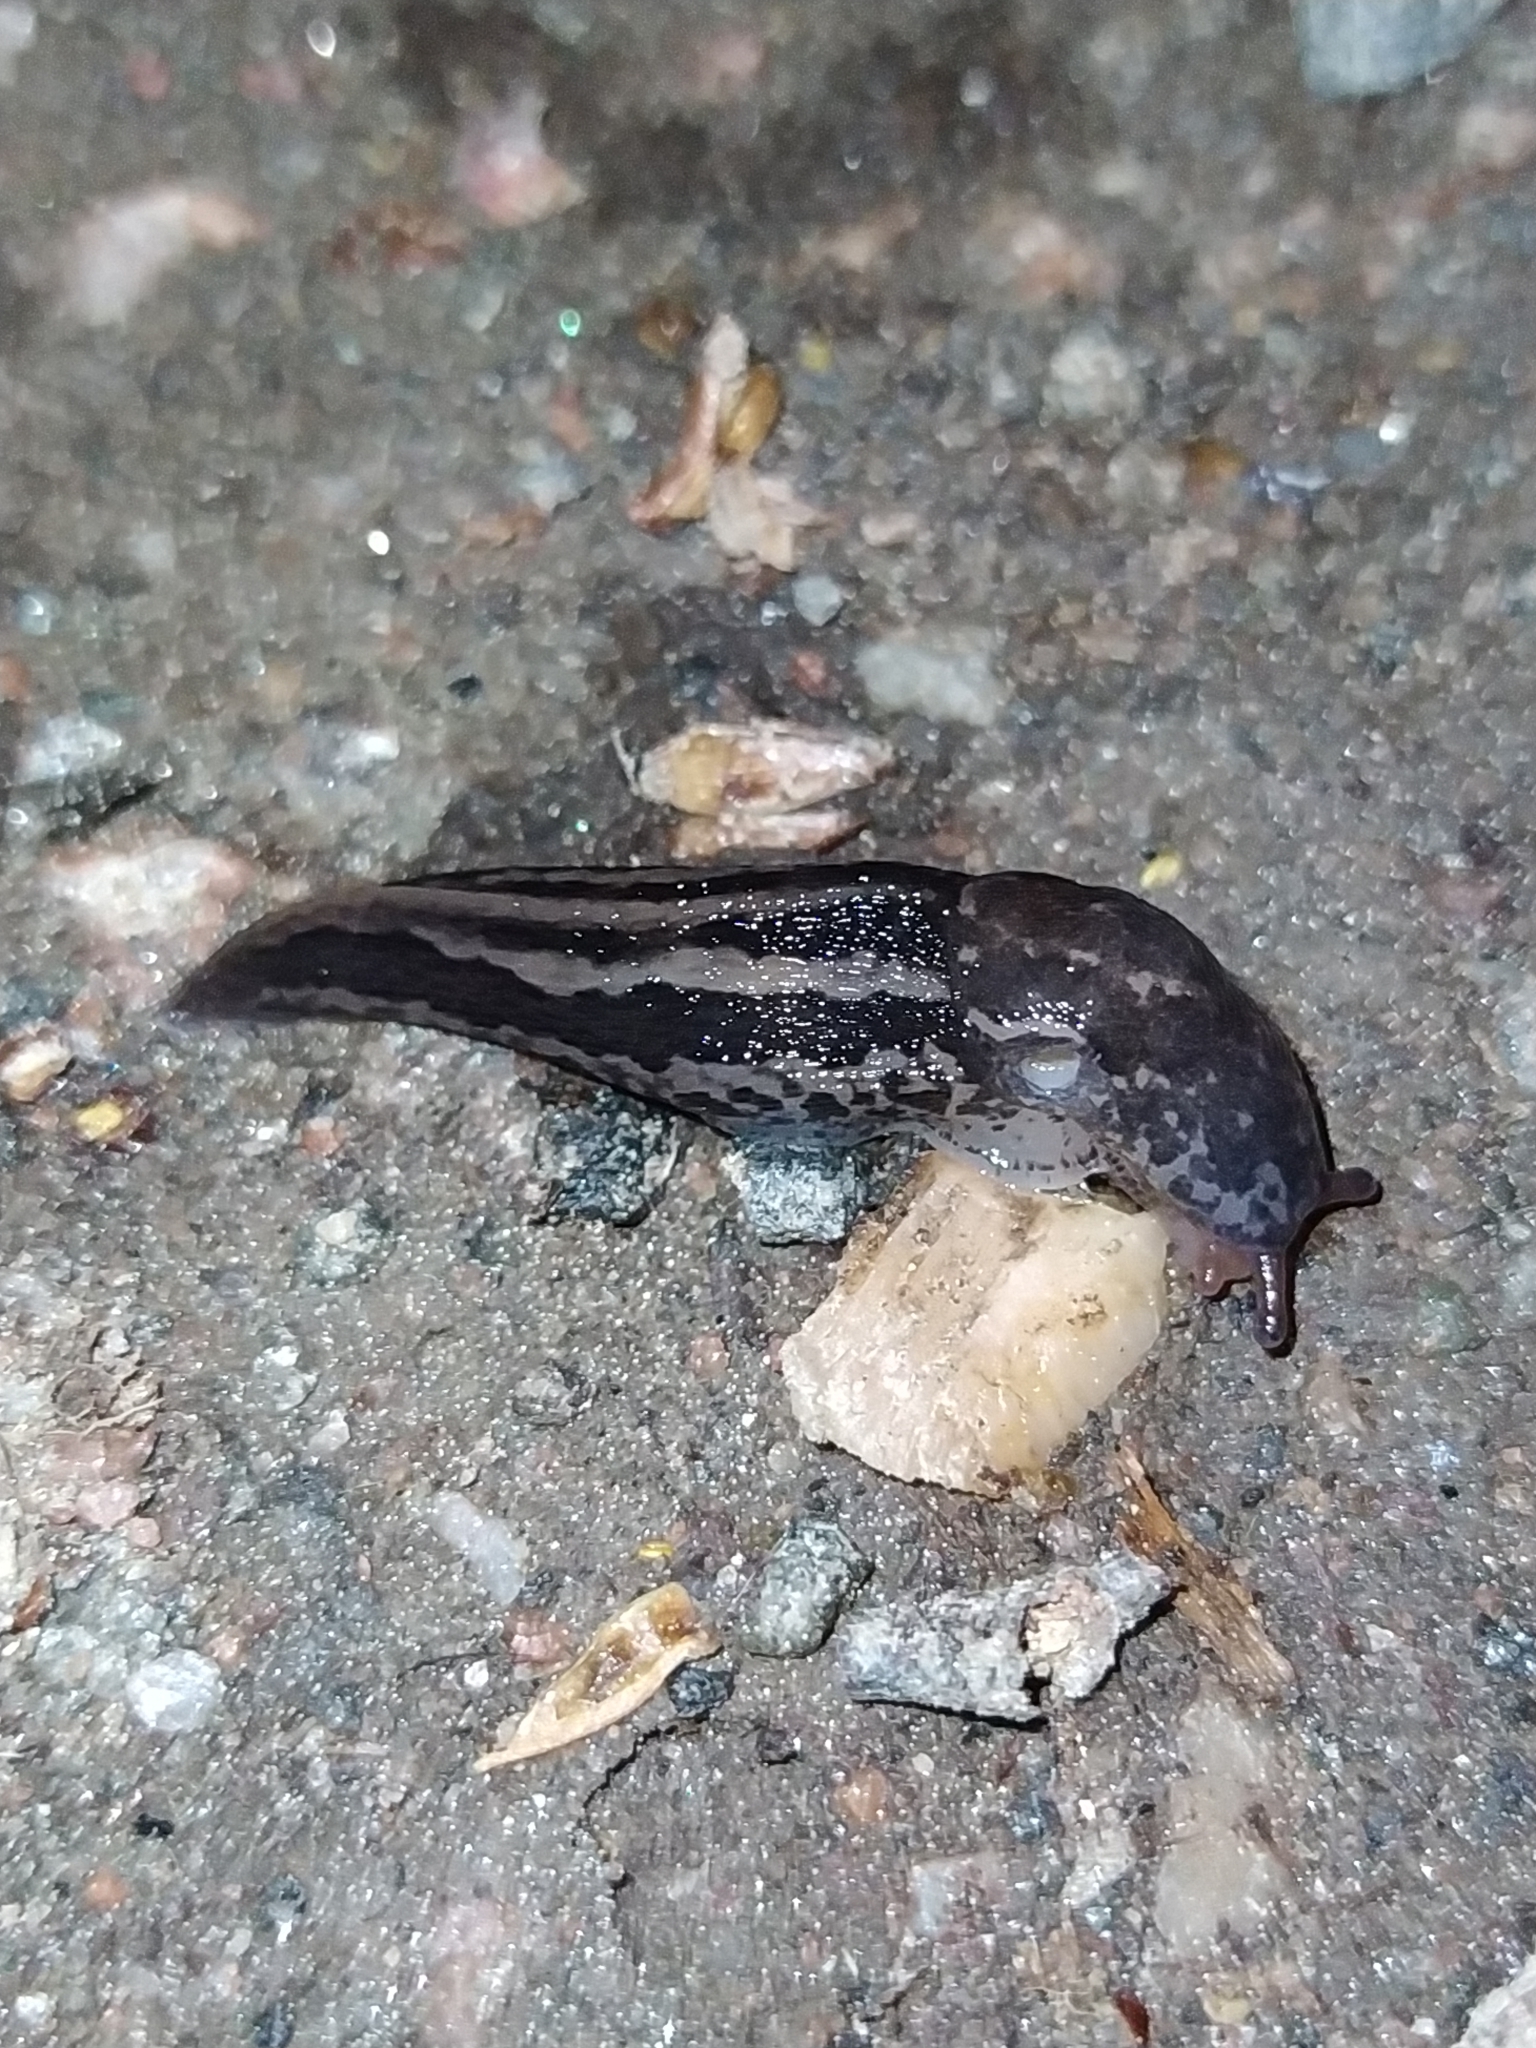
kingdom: Animalia
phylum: Mollusca
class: Gastropoda
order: Stylommatophora
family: Limacidae
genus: Limax
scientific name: Limax maximus
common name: Great grey slug
